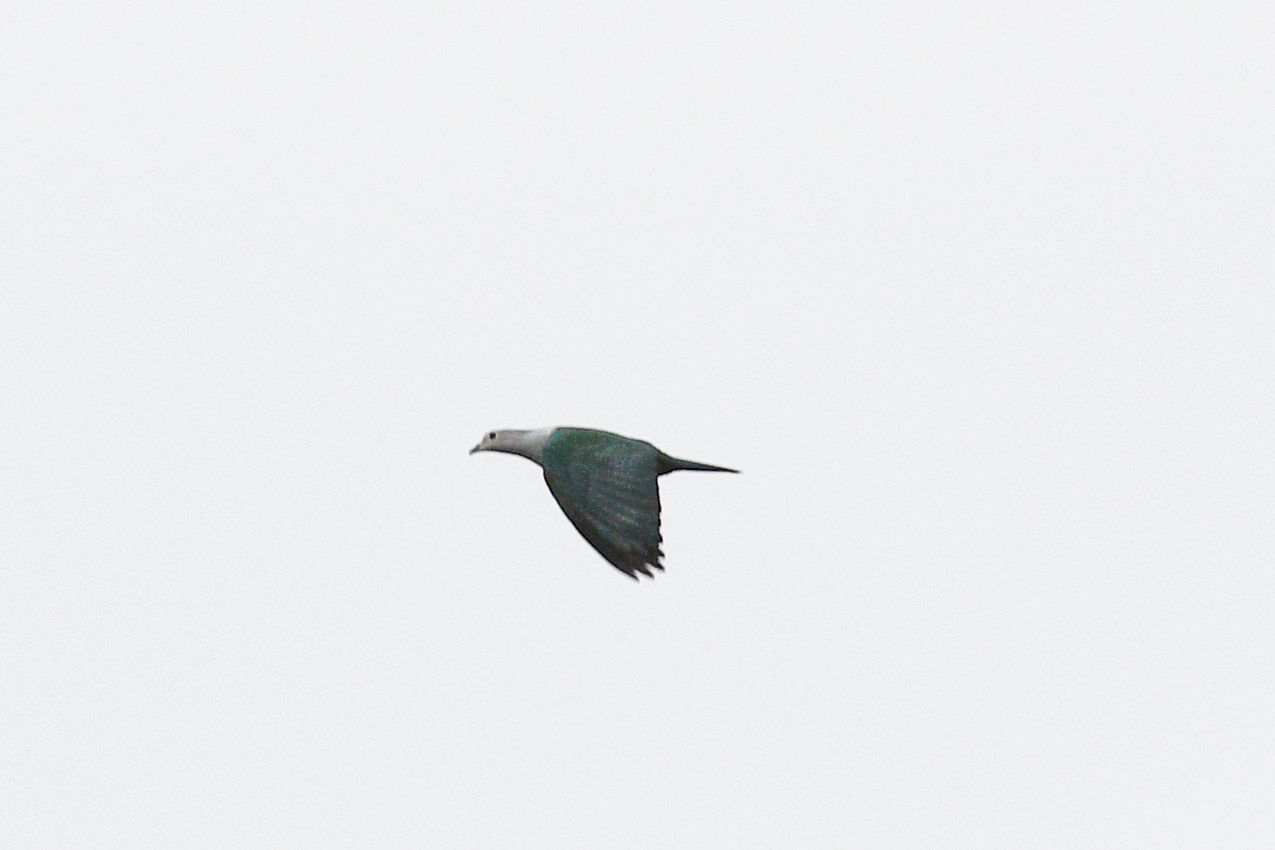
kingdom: Animalia
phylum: Chordata
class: Aves
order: Columbiformes
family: Columbidae
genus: Ducula
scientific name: Ducula aenea
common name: Green imperial pigeon
